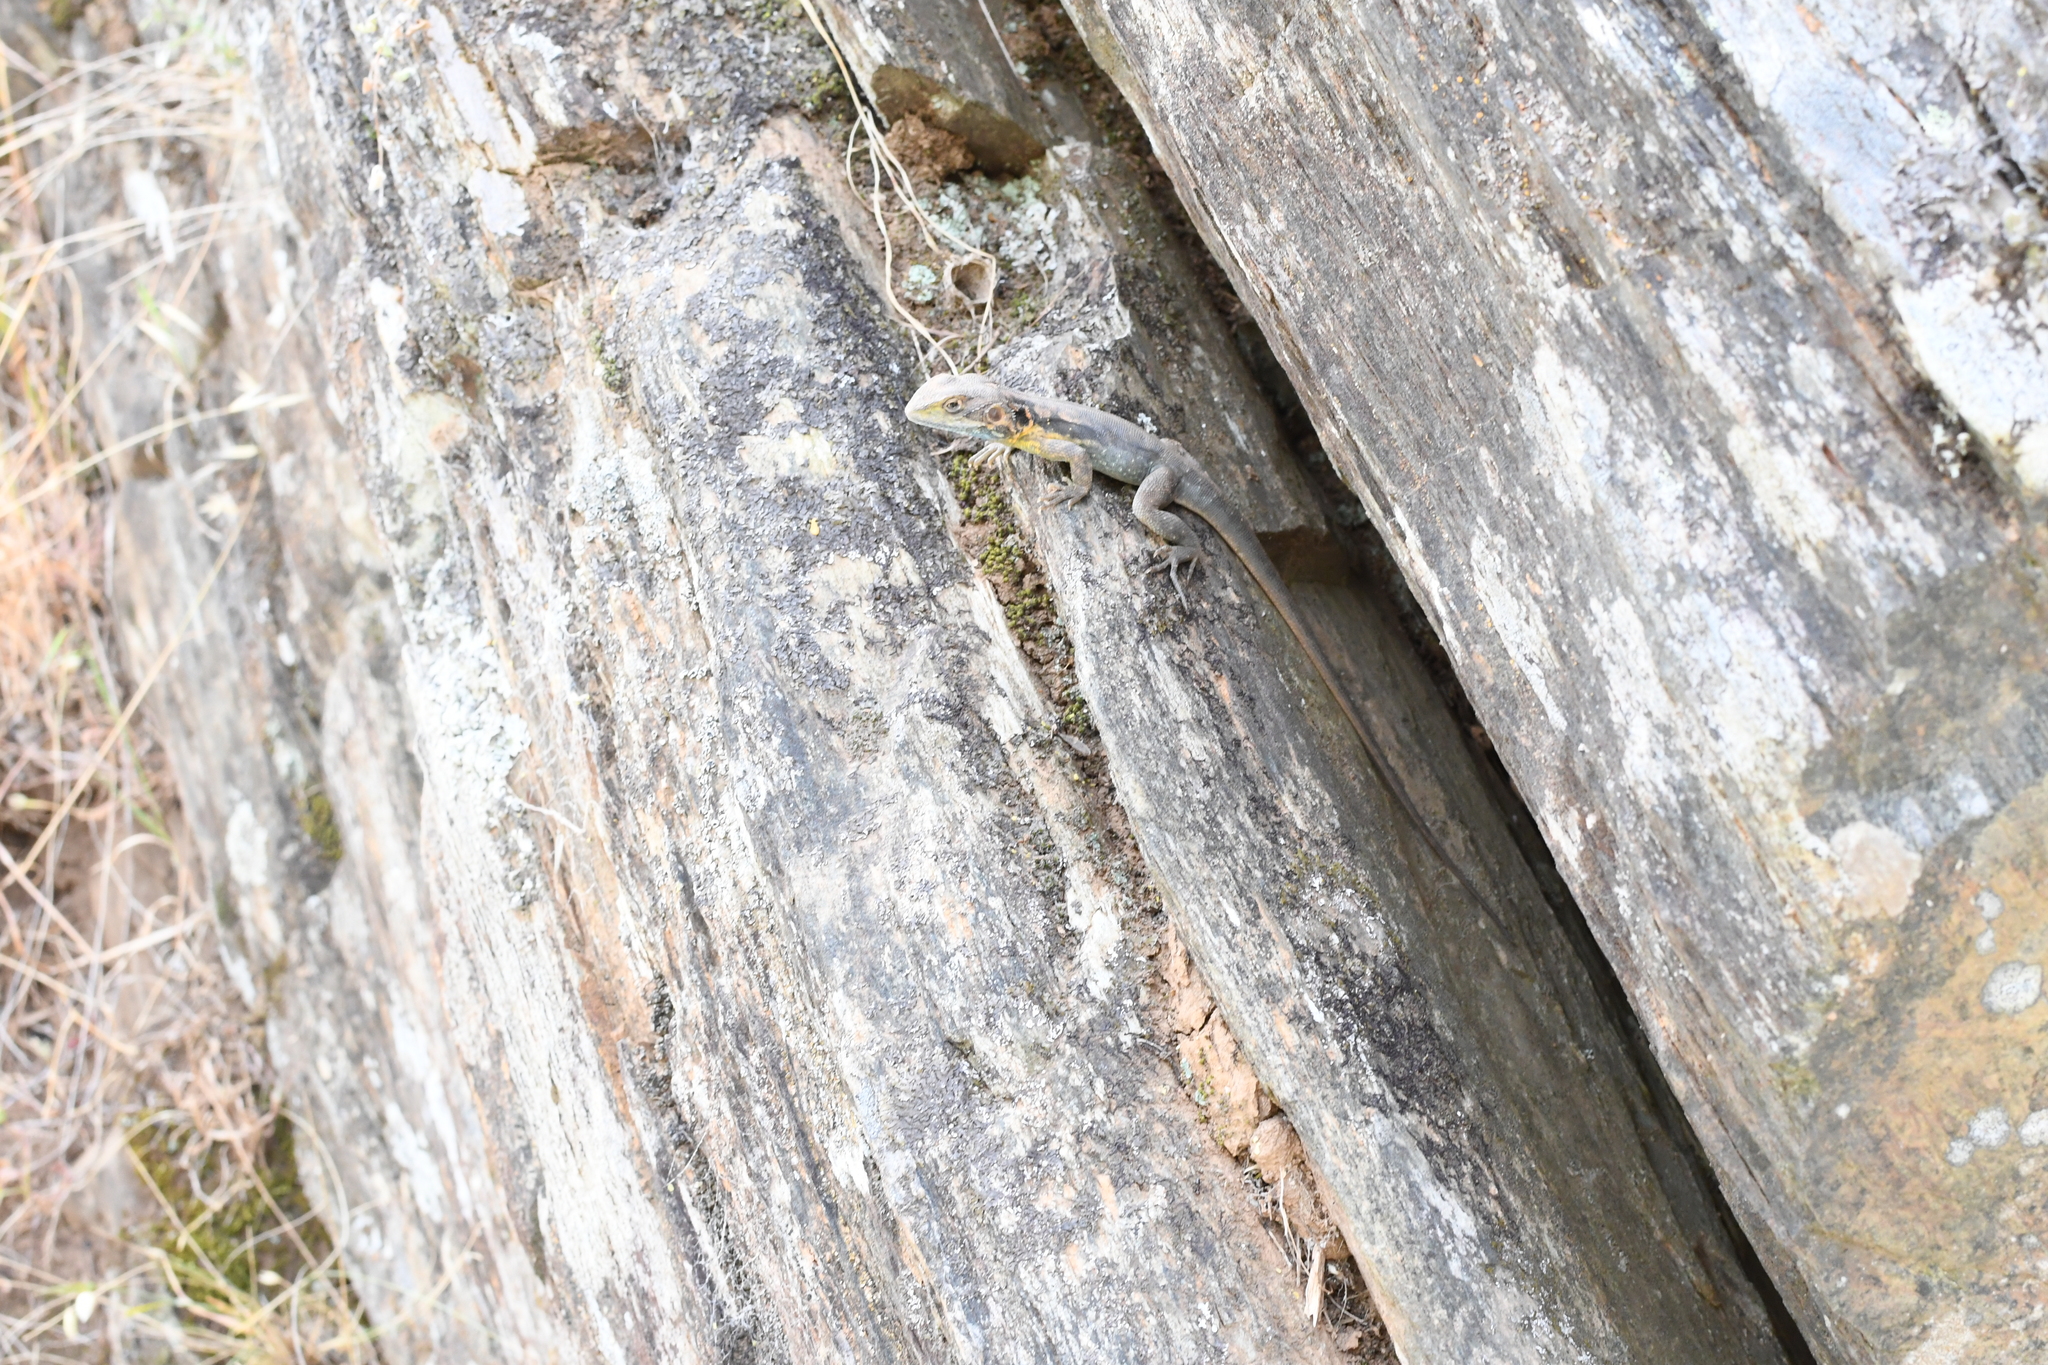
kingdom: Animalia
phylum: Chordata
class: Squamata
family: Agamidae
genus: Ctenophorus
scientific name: Ctenophorus decresii
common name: Tawny dragon
